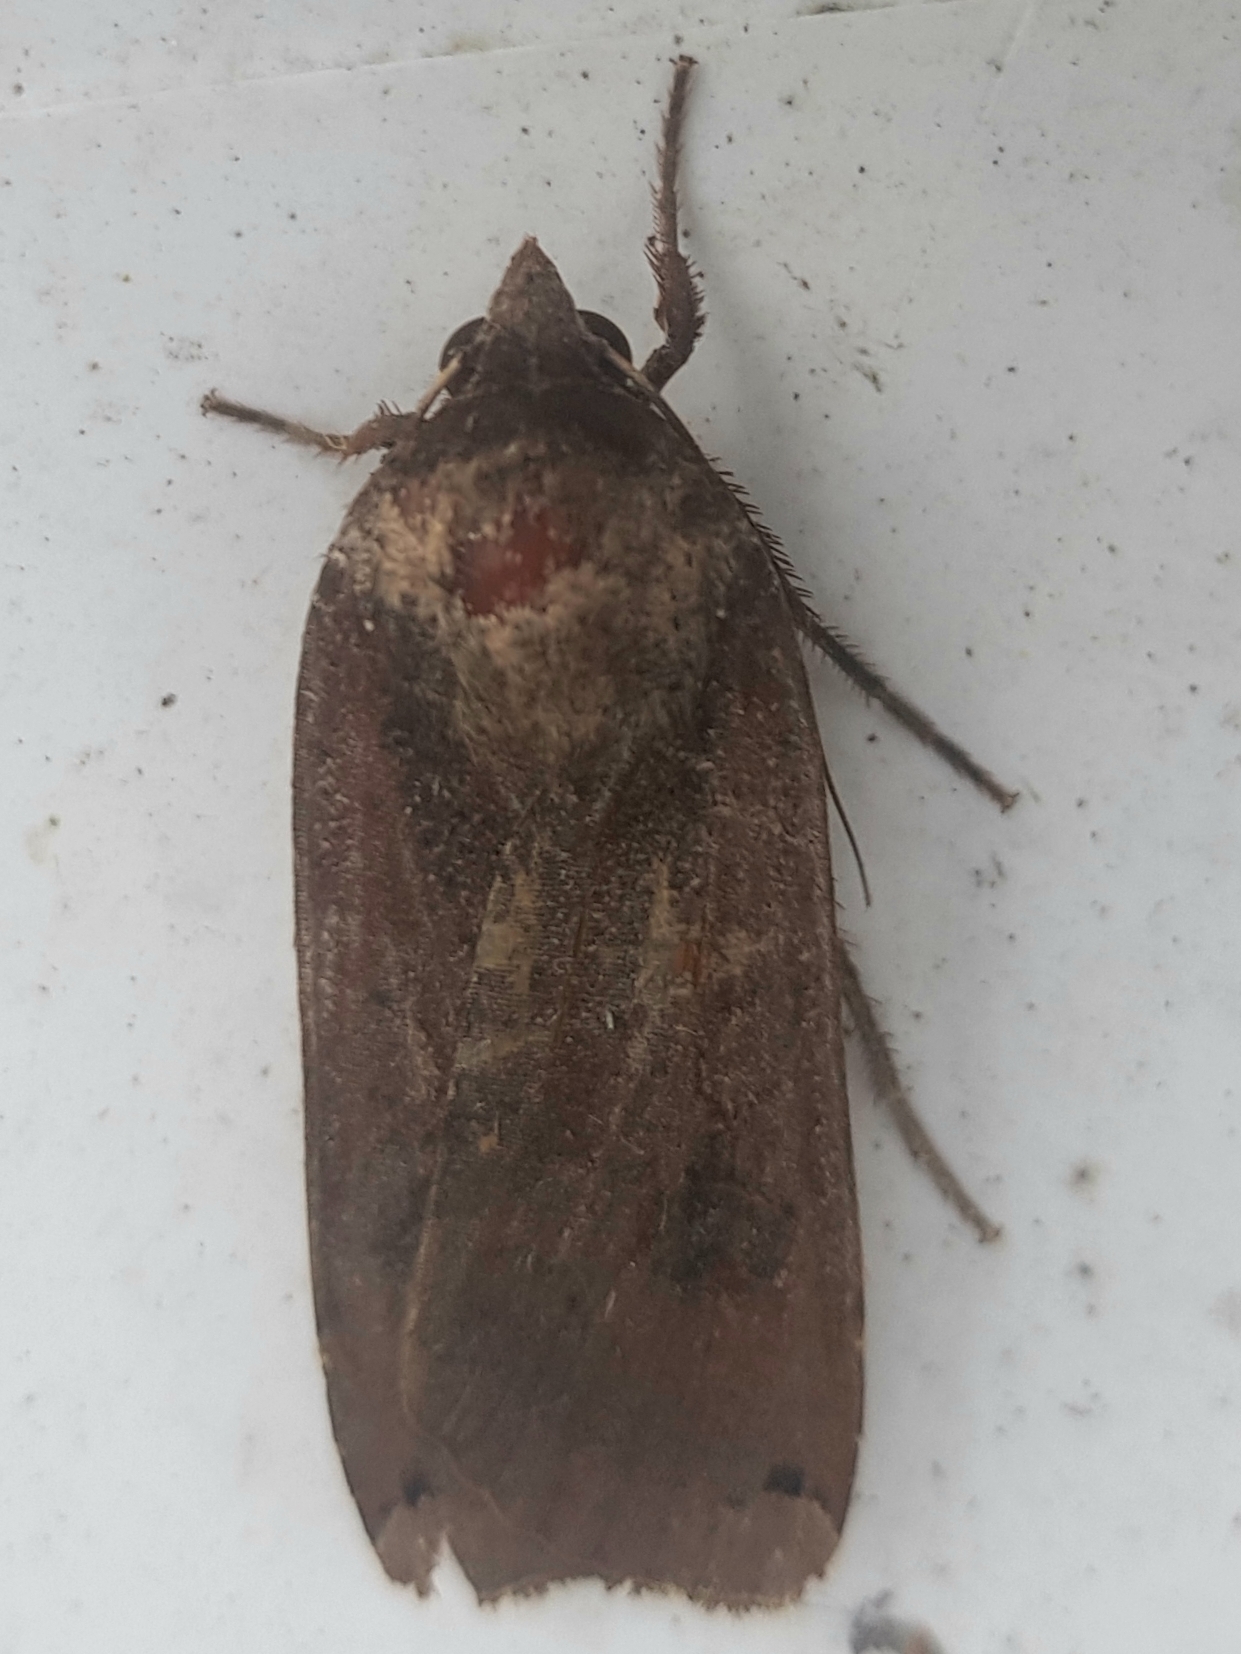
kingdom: Animalia
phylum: Arthropoda
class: Insecta
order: Lepidoptera
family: Noctuidae
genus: Noctua
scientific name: Noctua pronuba
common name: Large yellow underwing
